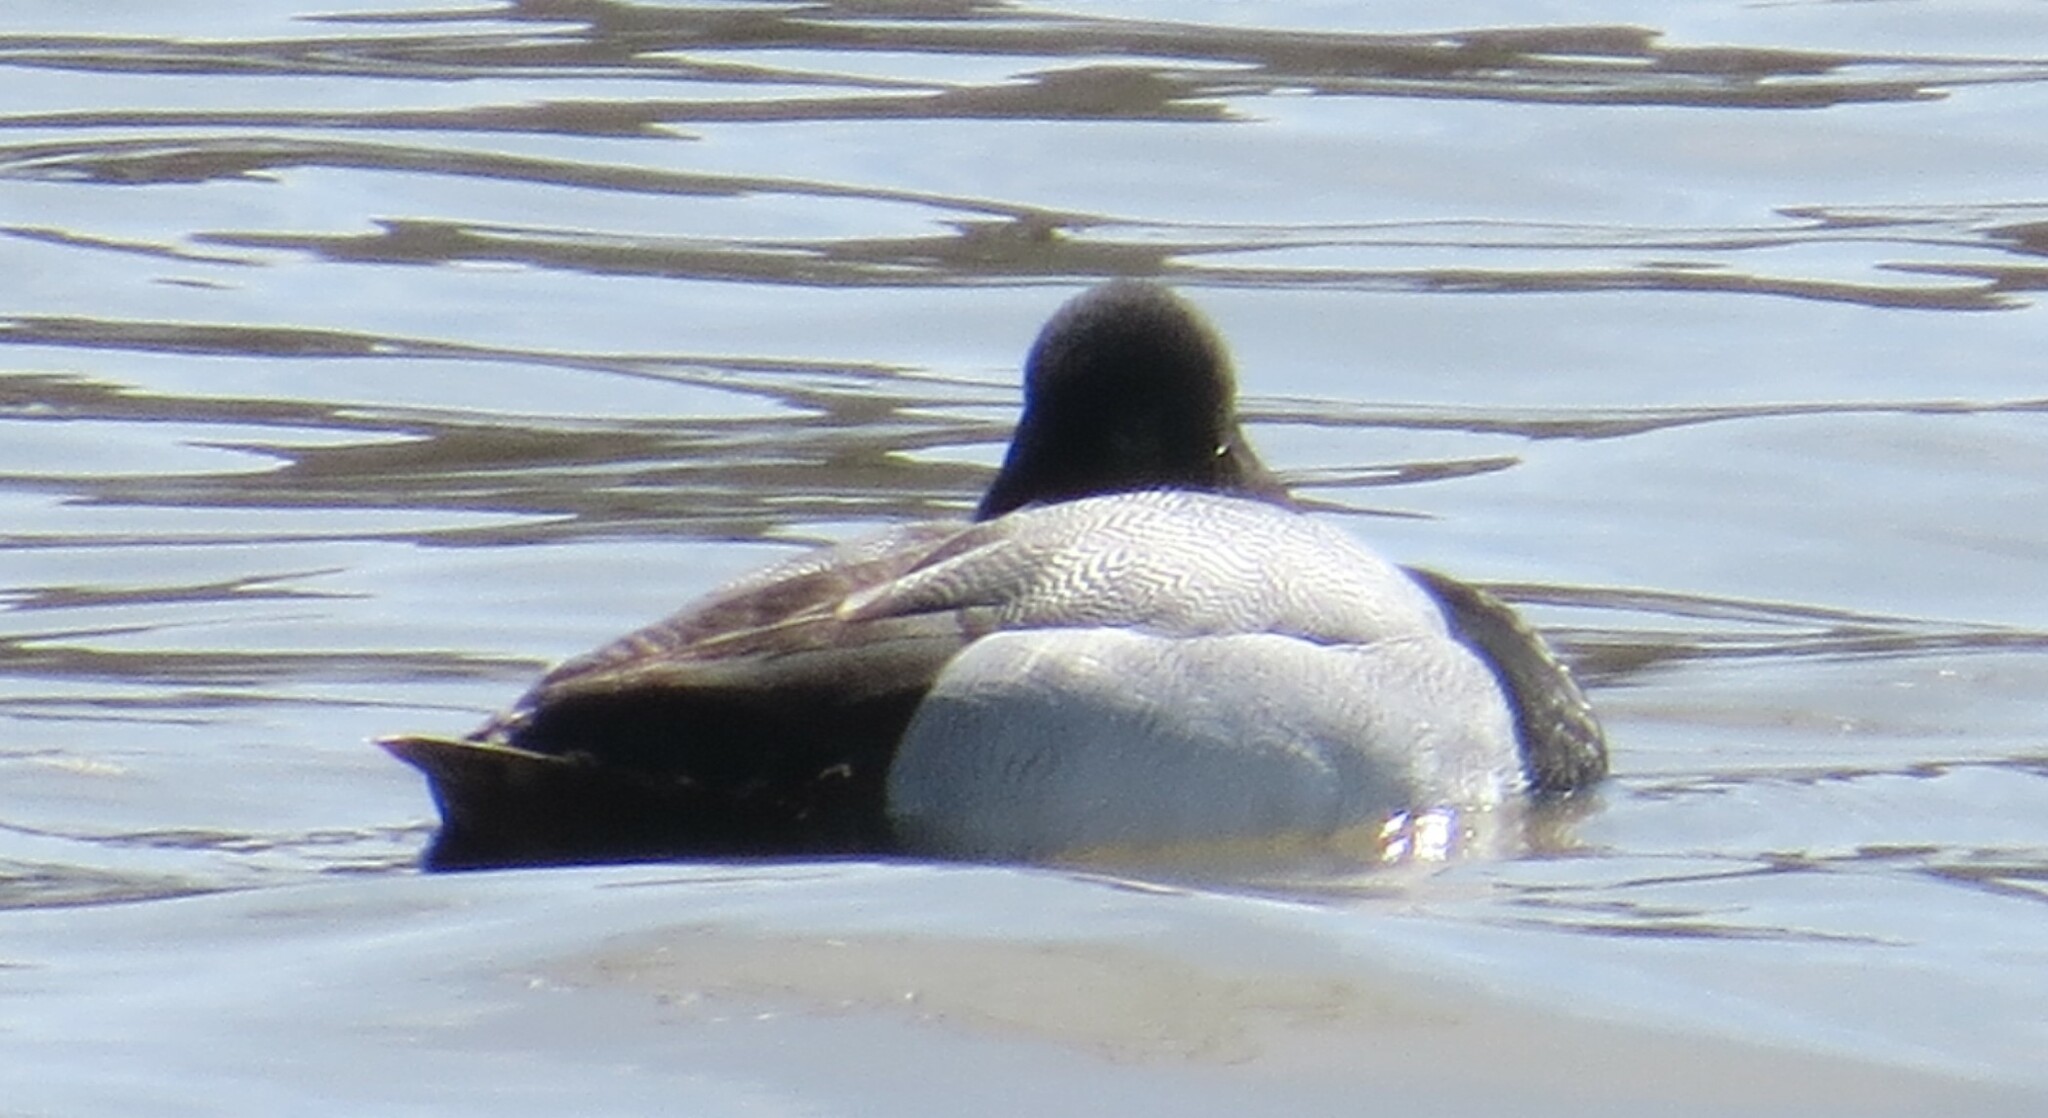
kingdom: Animalia
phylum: Chordata
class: Aves
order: Anseriformes
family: Anatidae
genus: Aythya
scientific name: Aythya marila
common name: Greater scaup
